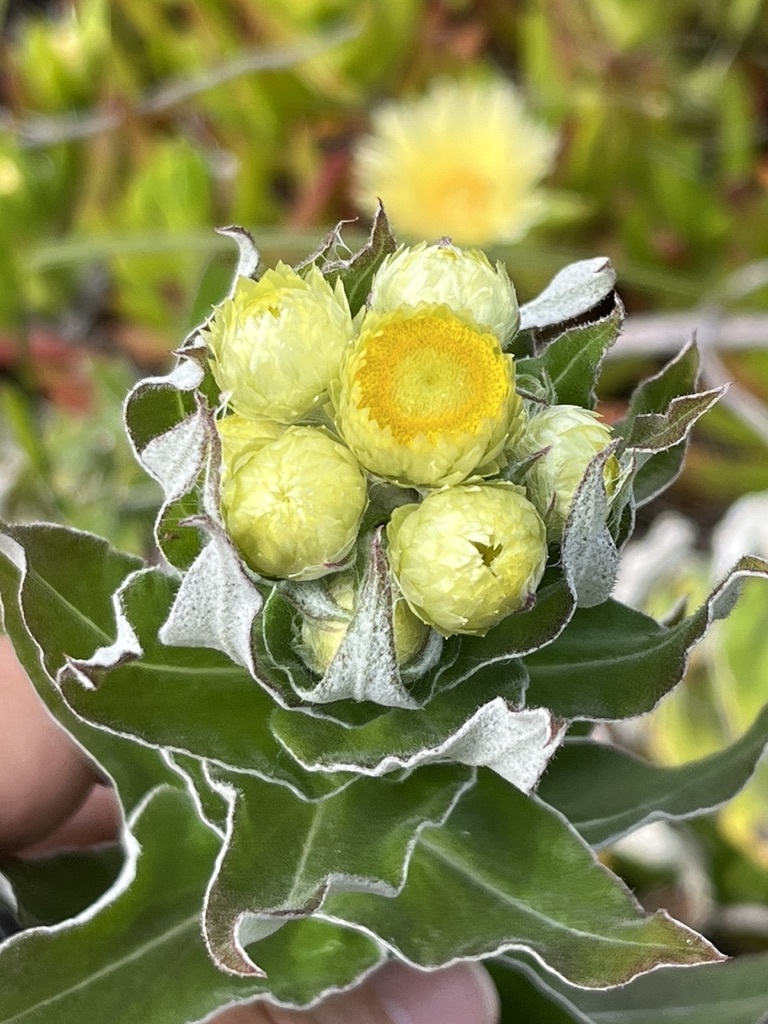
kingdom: Plantae
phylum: Tracheophyta
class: Magnoliopsida
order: Asterales
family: Asteraceae
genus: Helichrysum
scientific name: Helichrysum foetidum
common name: Stinking everlasting
